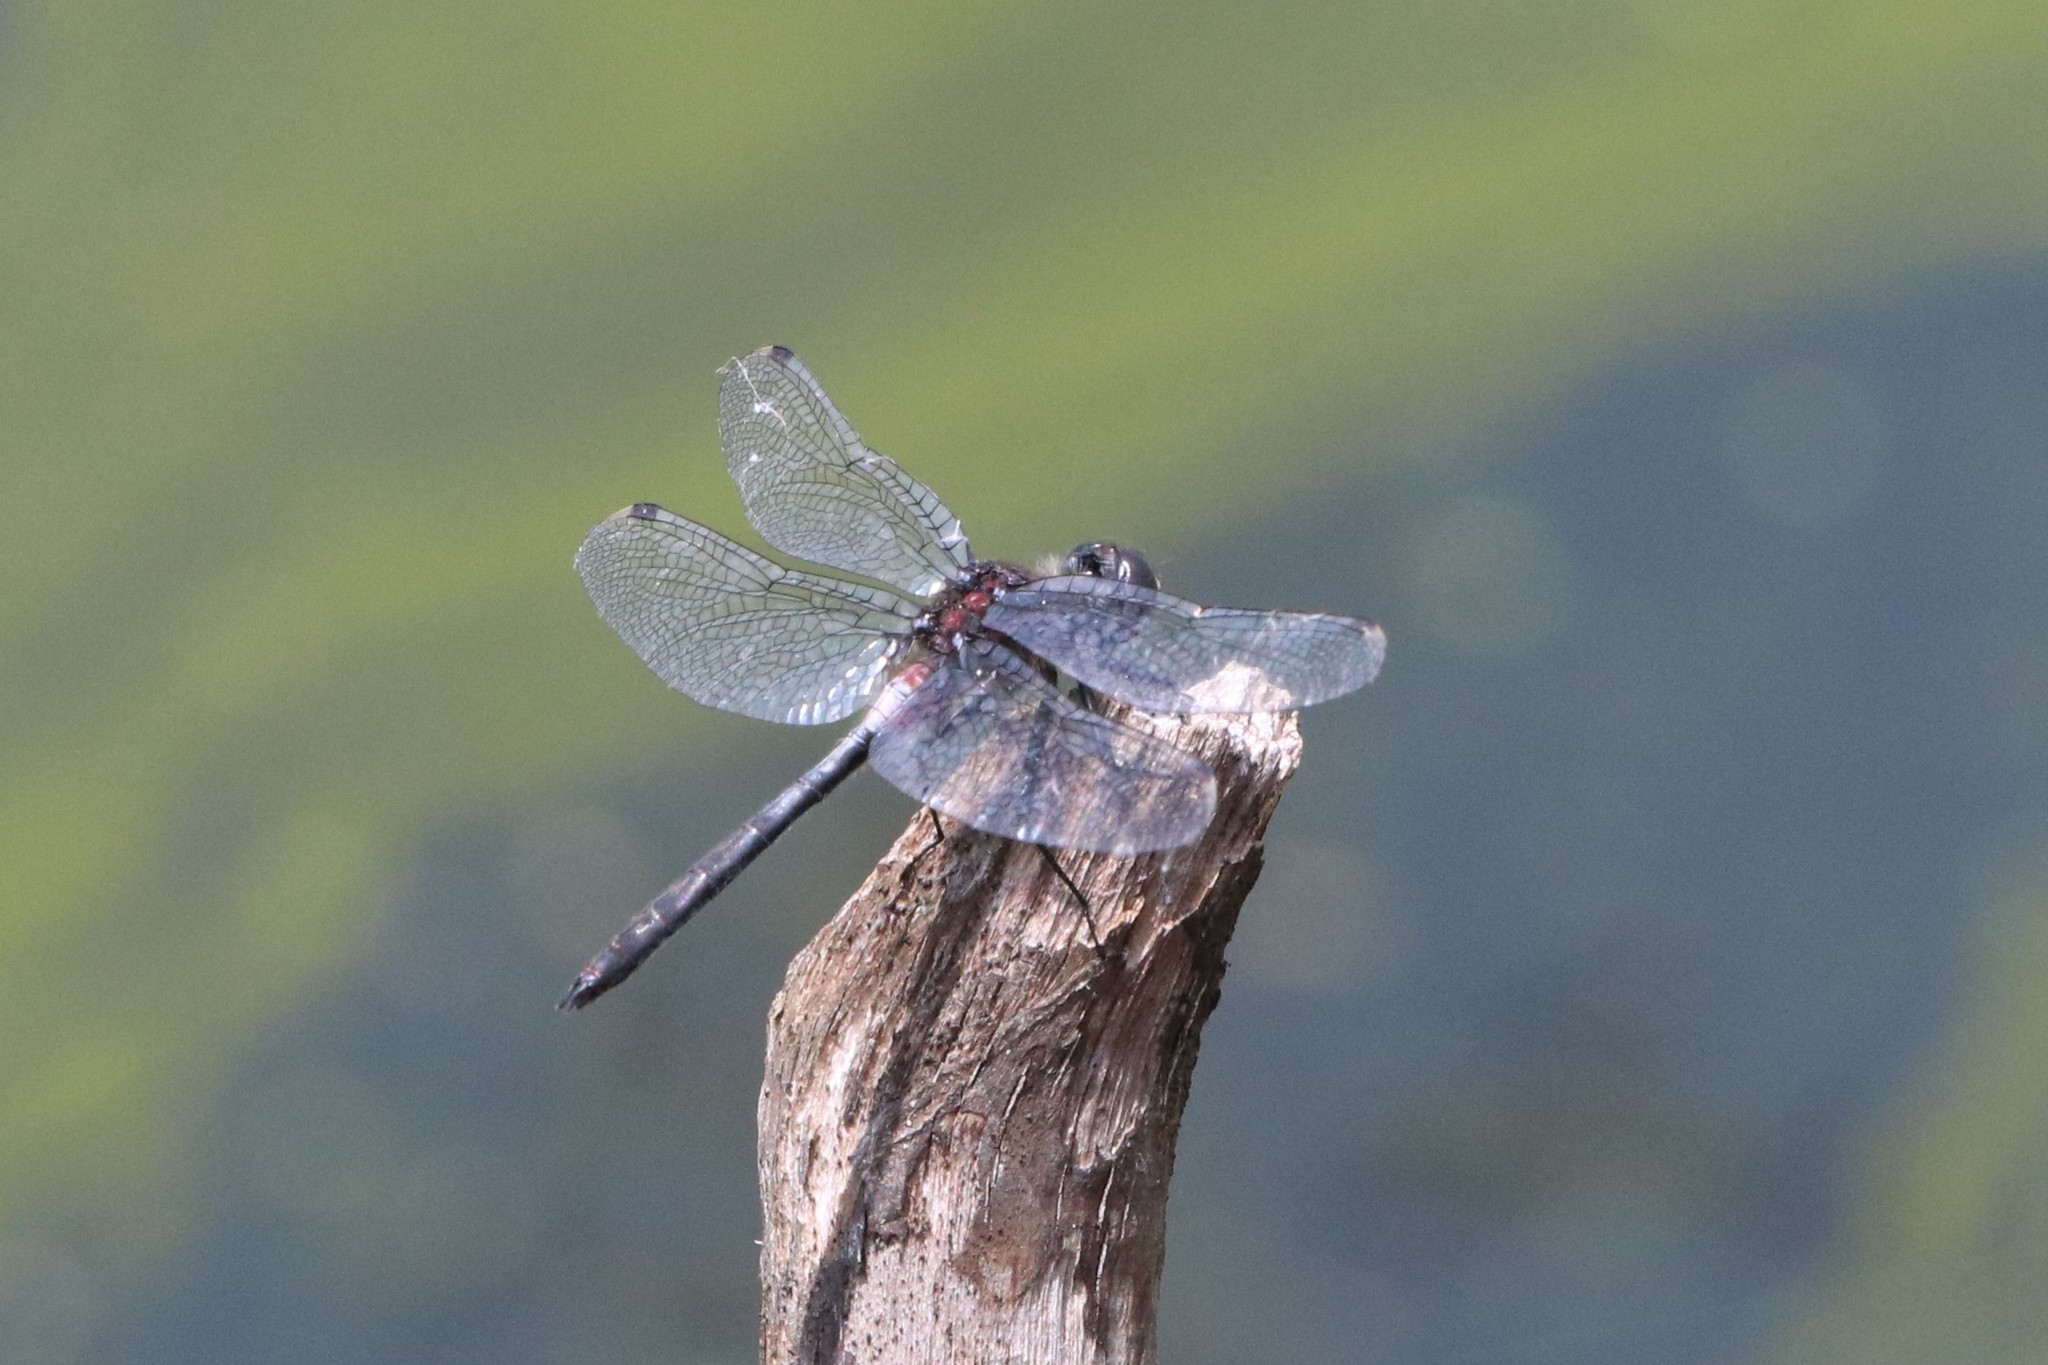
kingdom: Animalia
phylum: Arthropoda
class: Insecta
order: Odonata
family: Libellulidae
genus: Leucorrhinia
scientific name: Leucorrhinia proxima
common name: Belted whiteface
